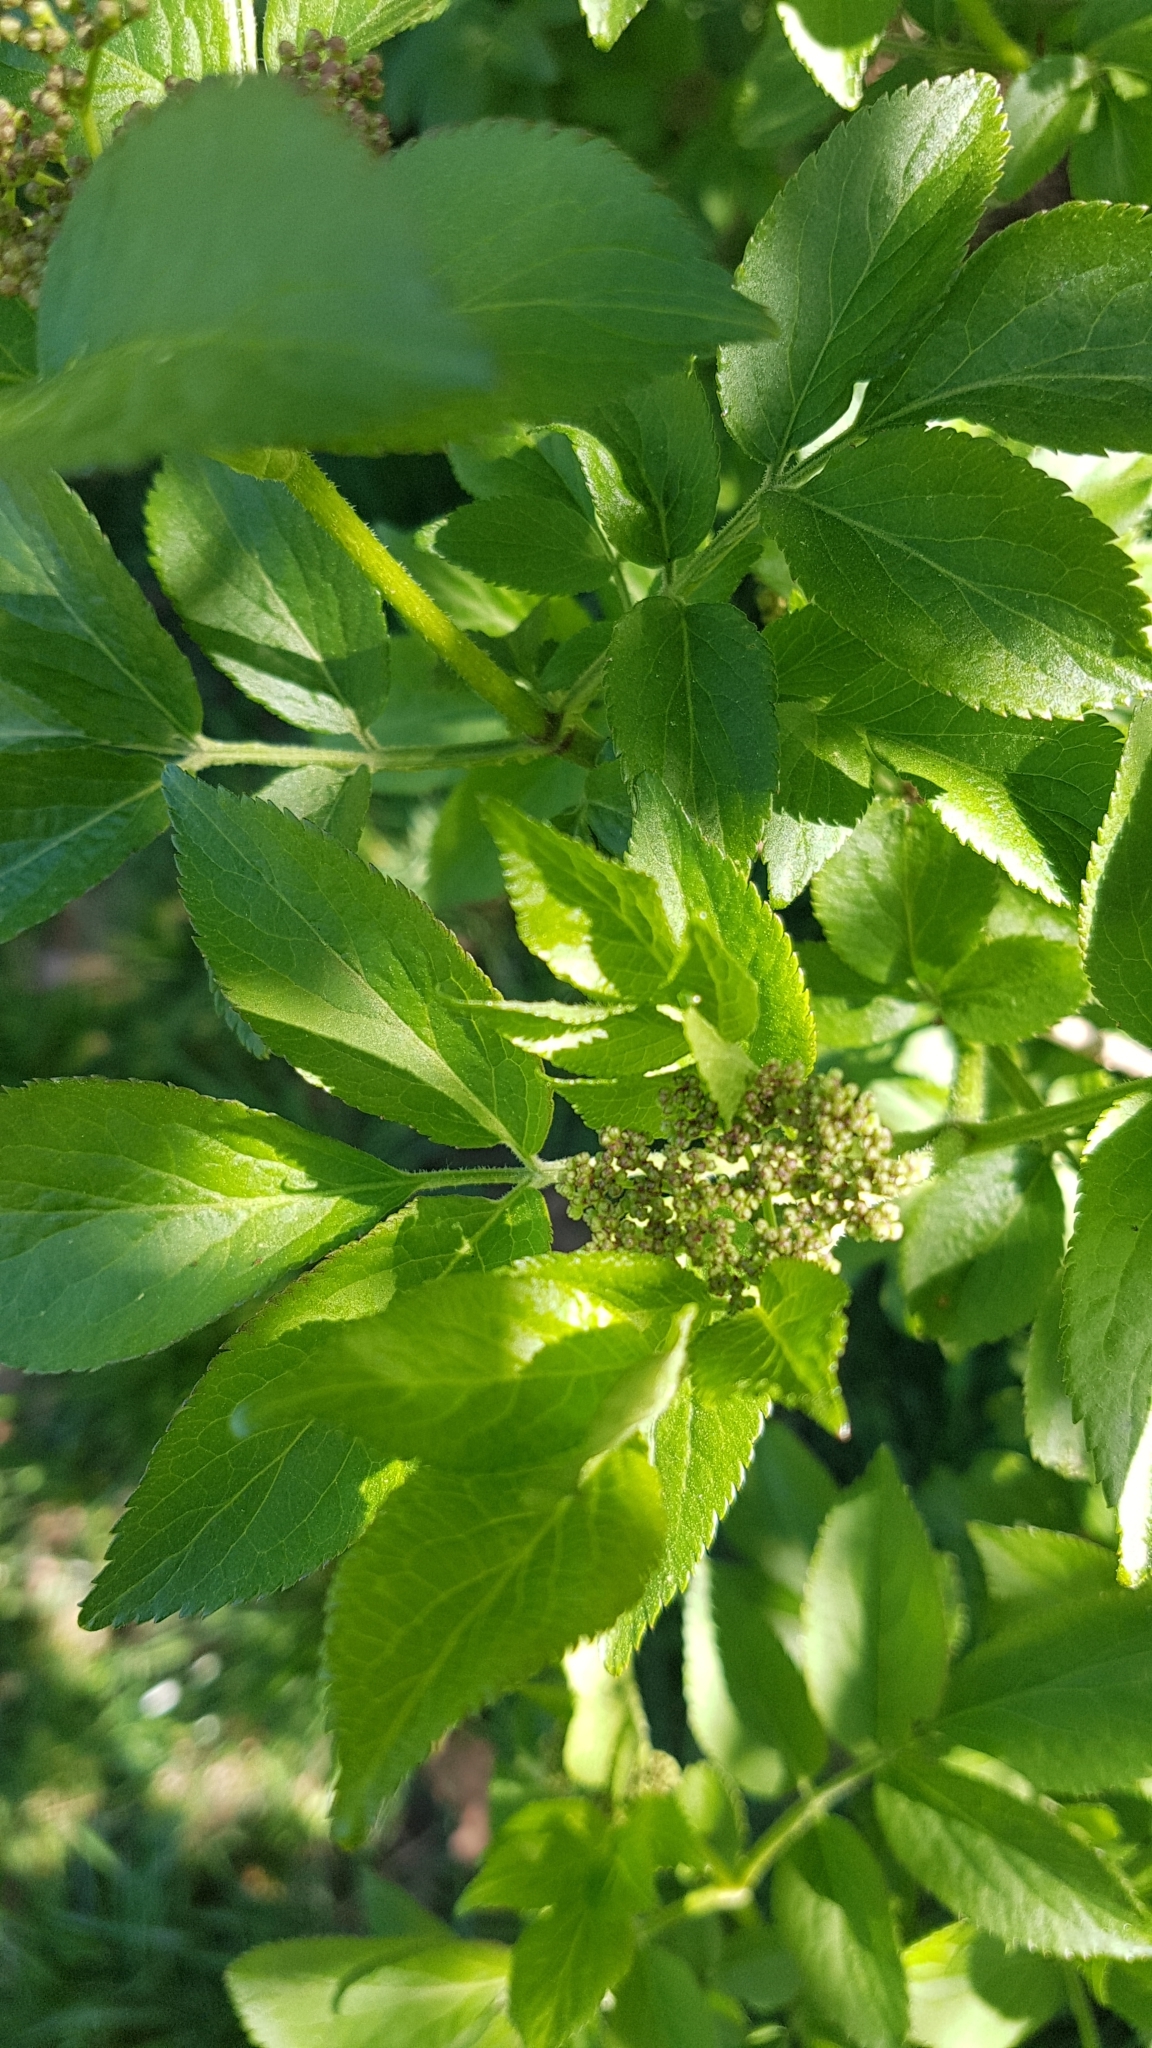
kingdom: Plantae
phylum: Tracheophyta
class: Magnoliopsida
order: Dipsacales
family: Viburnaceae
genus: Sambucus
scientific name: Sambucus nigra
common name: Elder
